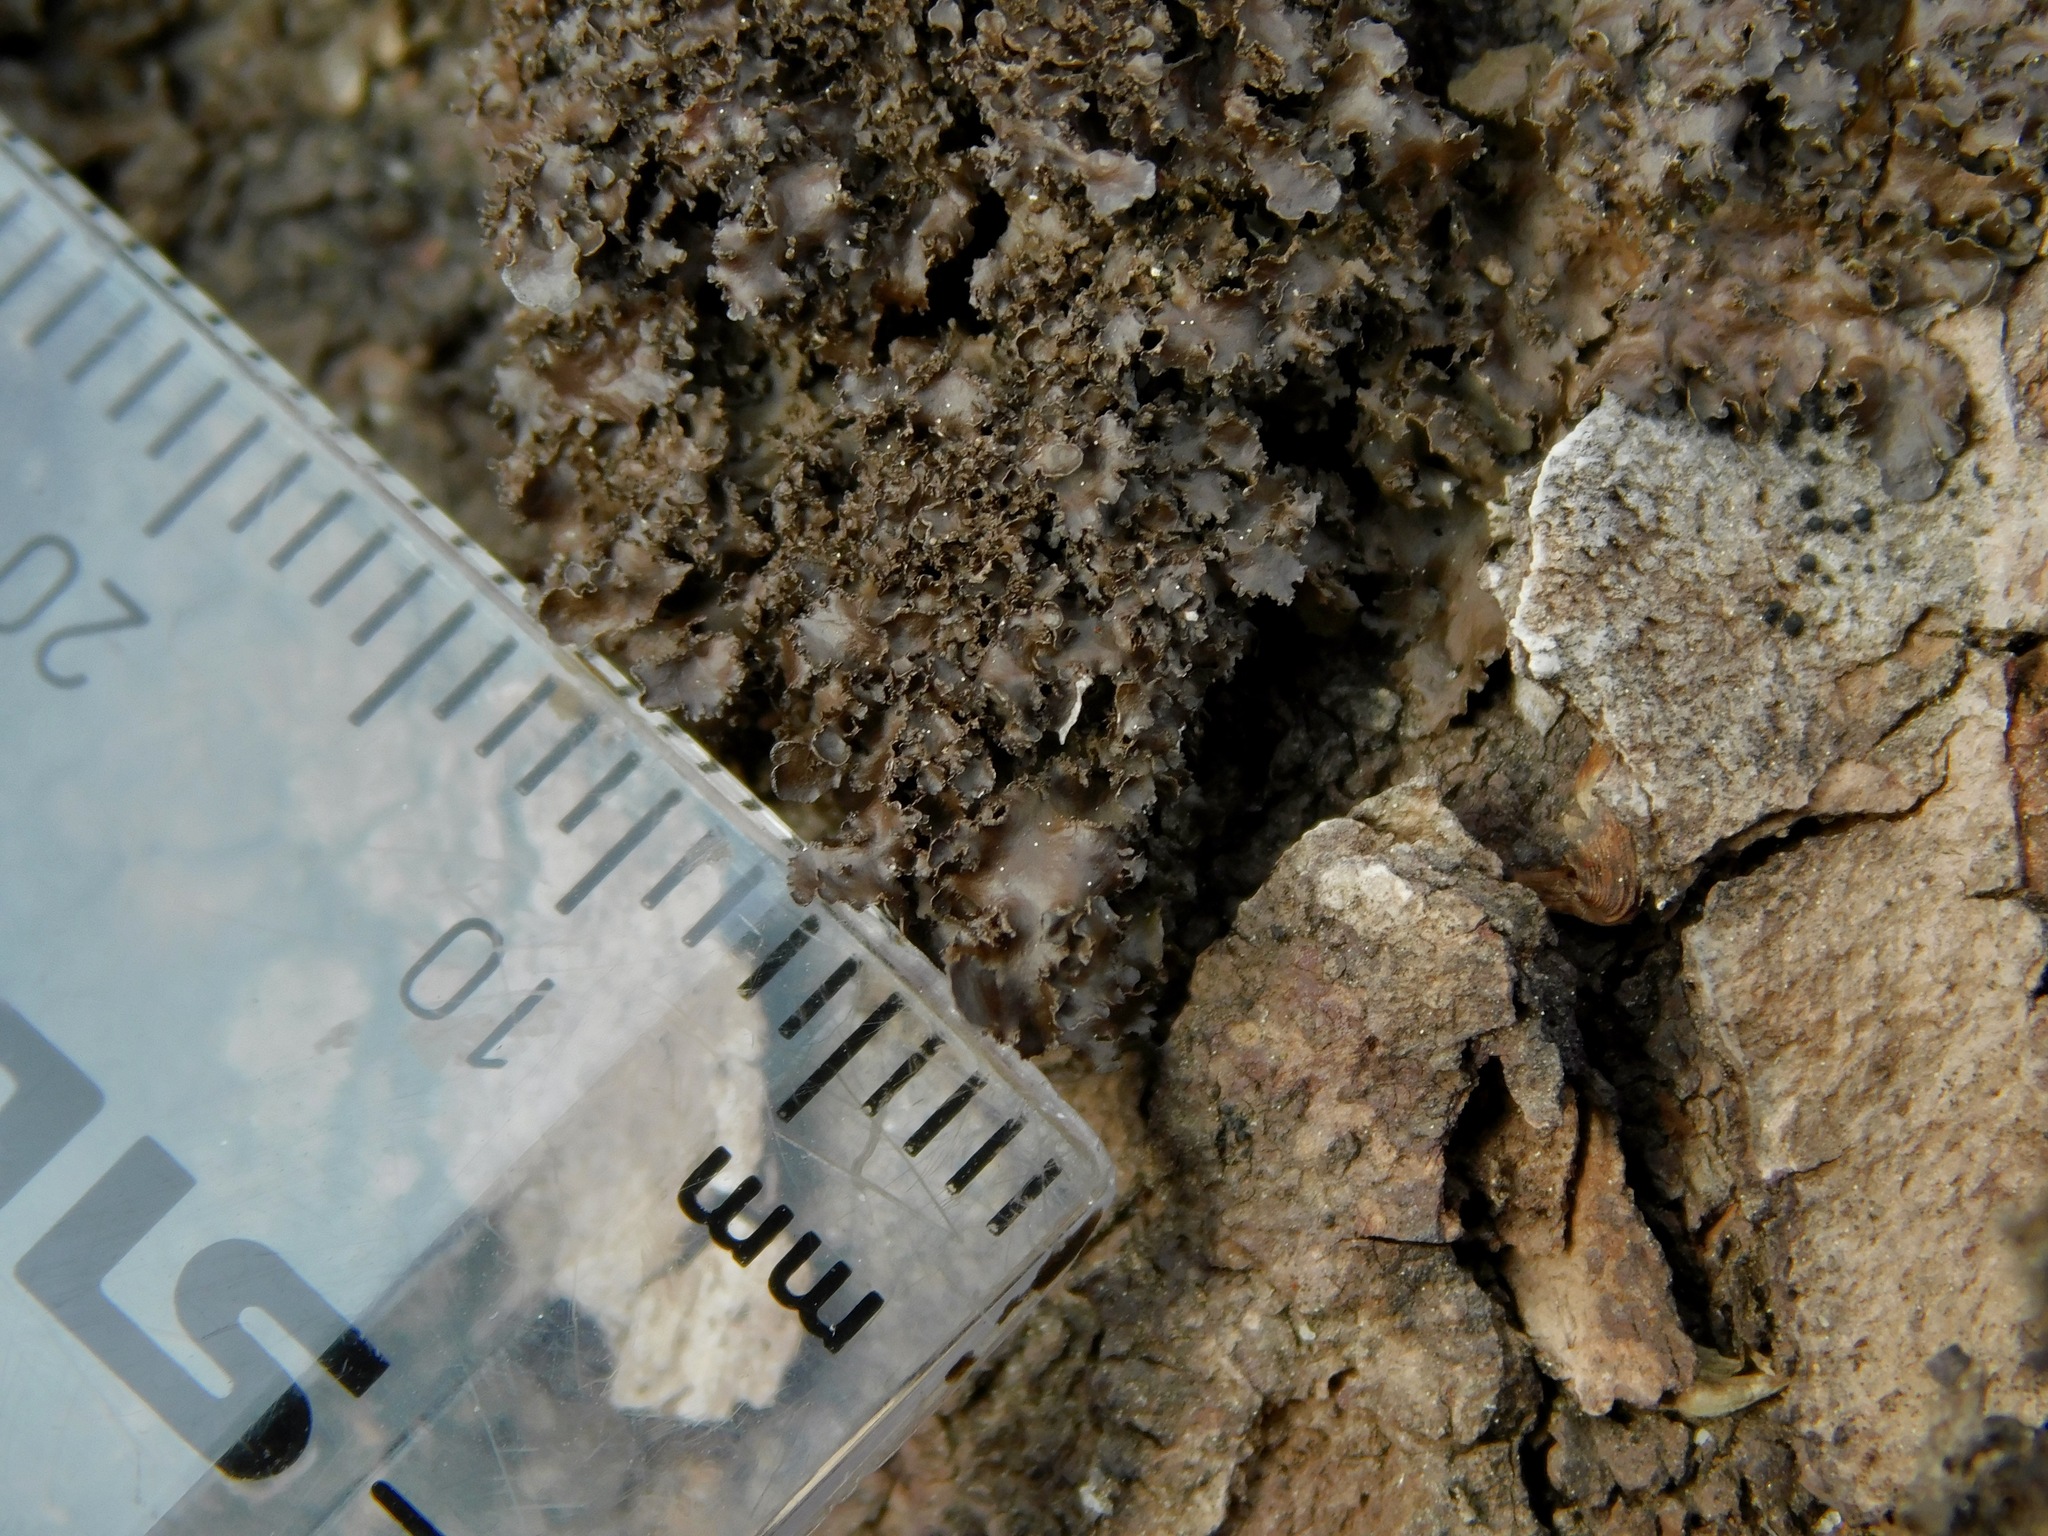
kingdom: Fungi
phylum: Ascomycota
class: Lecanoromycetes
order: Peltigerales
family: Lobariaceae
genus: Sticta
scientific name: Sticta carolinensis
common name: Carolina moon lichen
